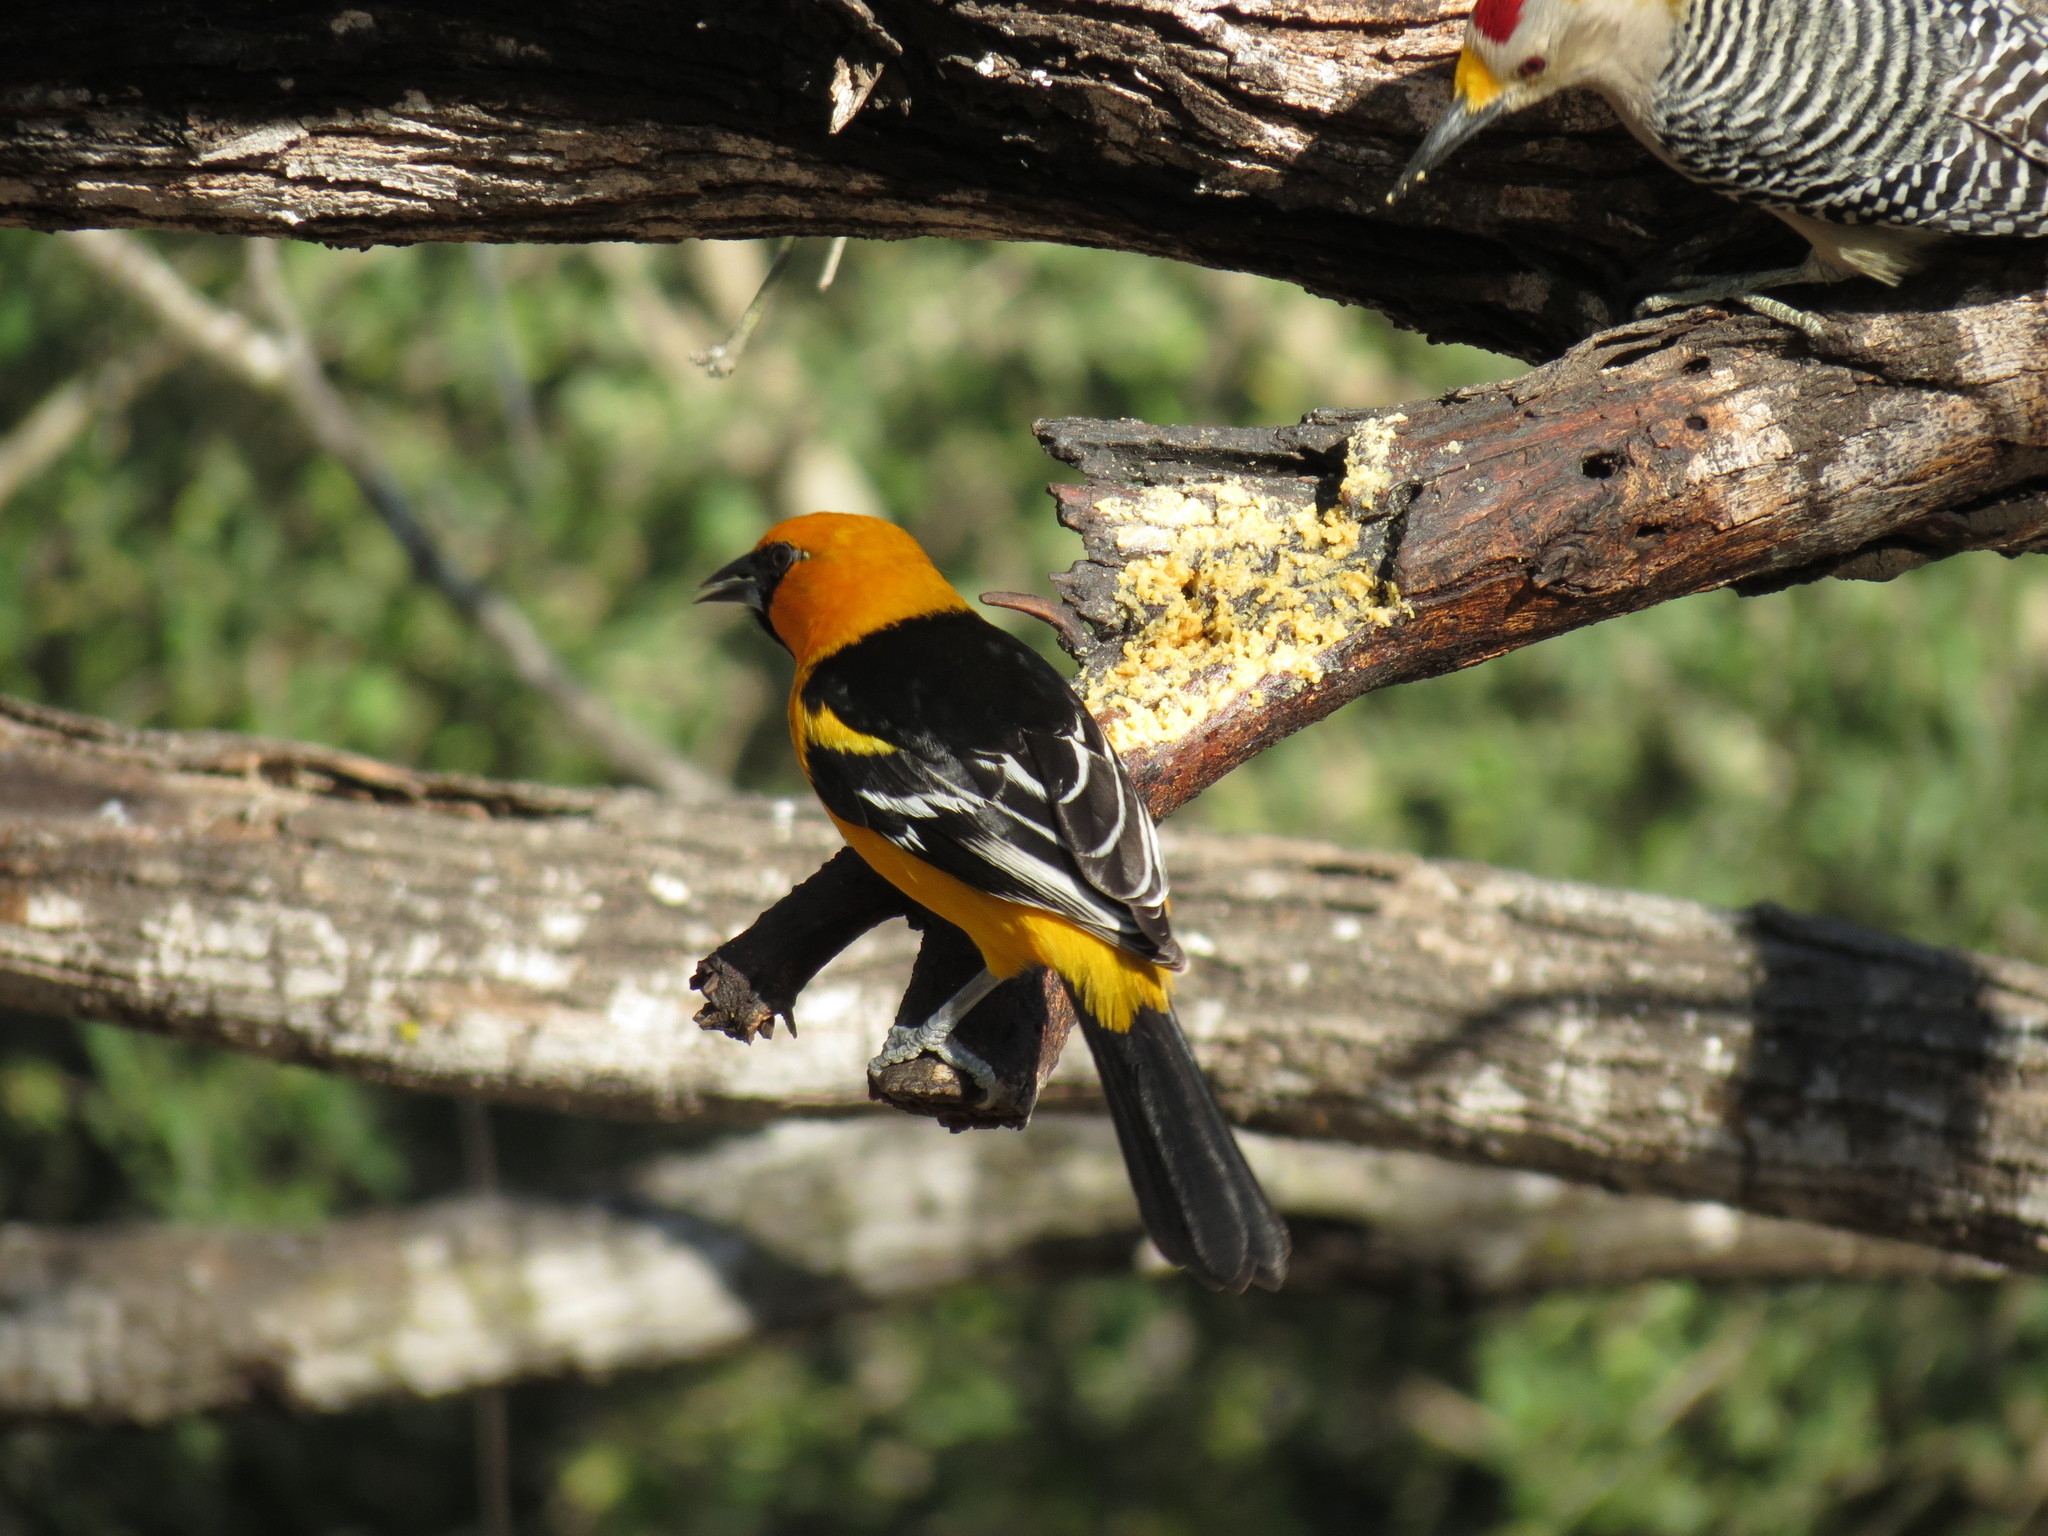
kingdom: Animalia
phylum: Chordata
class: Aves
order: Passeriformes
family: Icteridae
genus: Icterus
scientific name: Icterus gularis
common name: Altamira oriole
